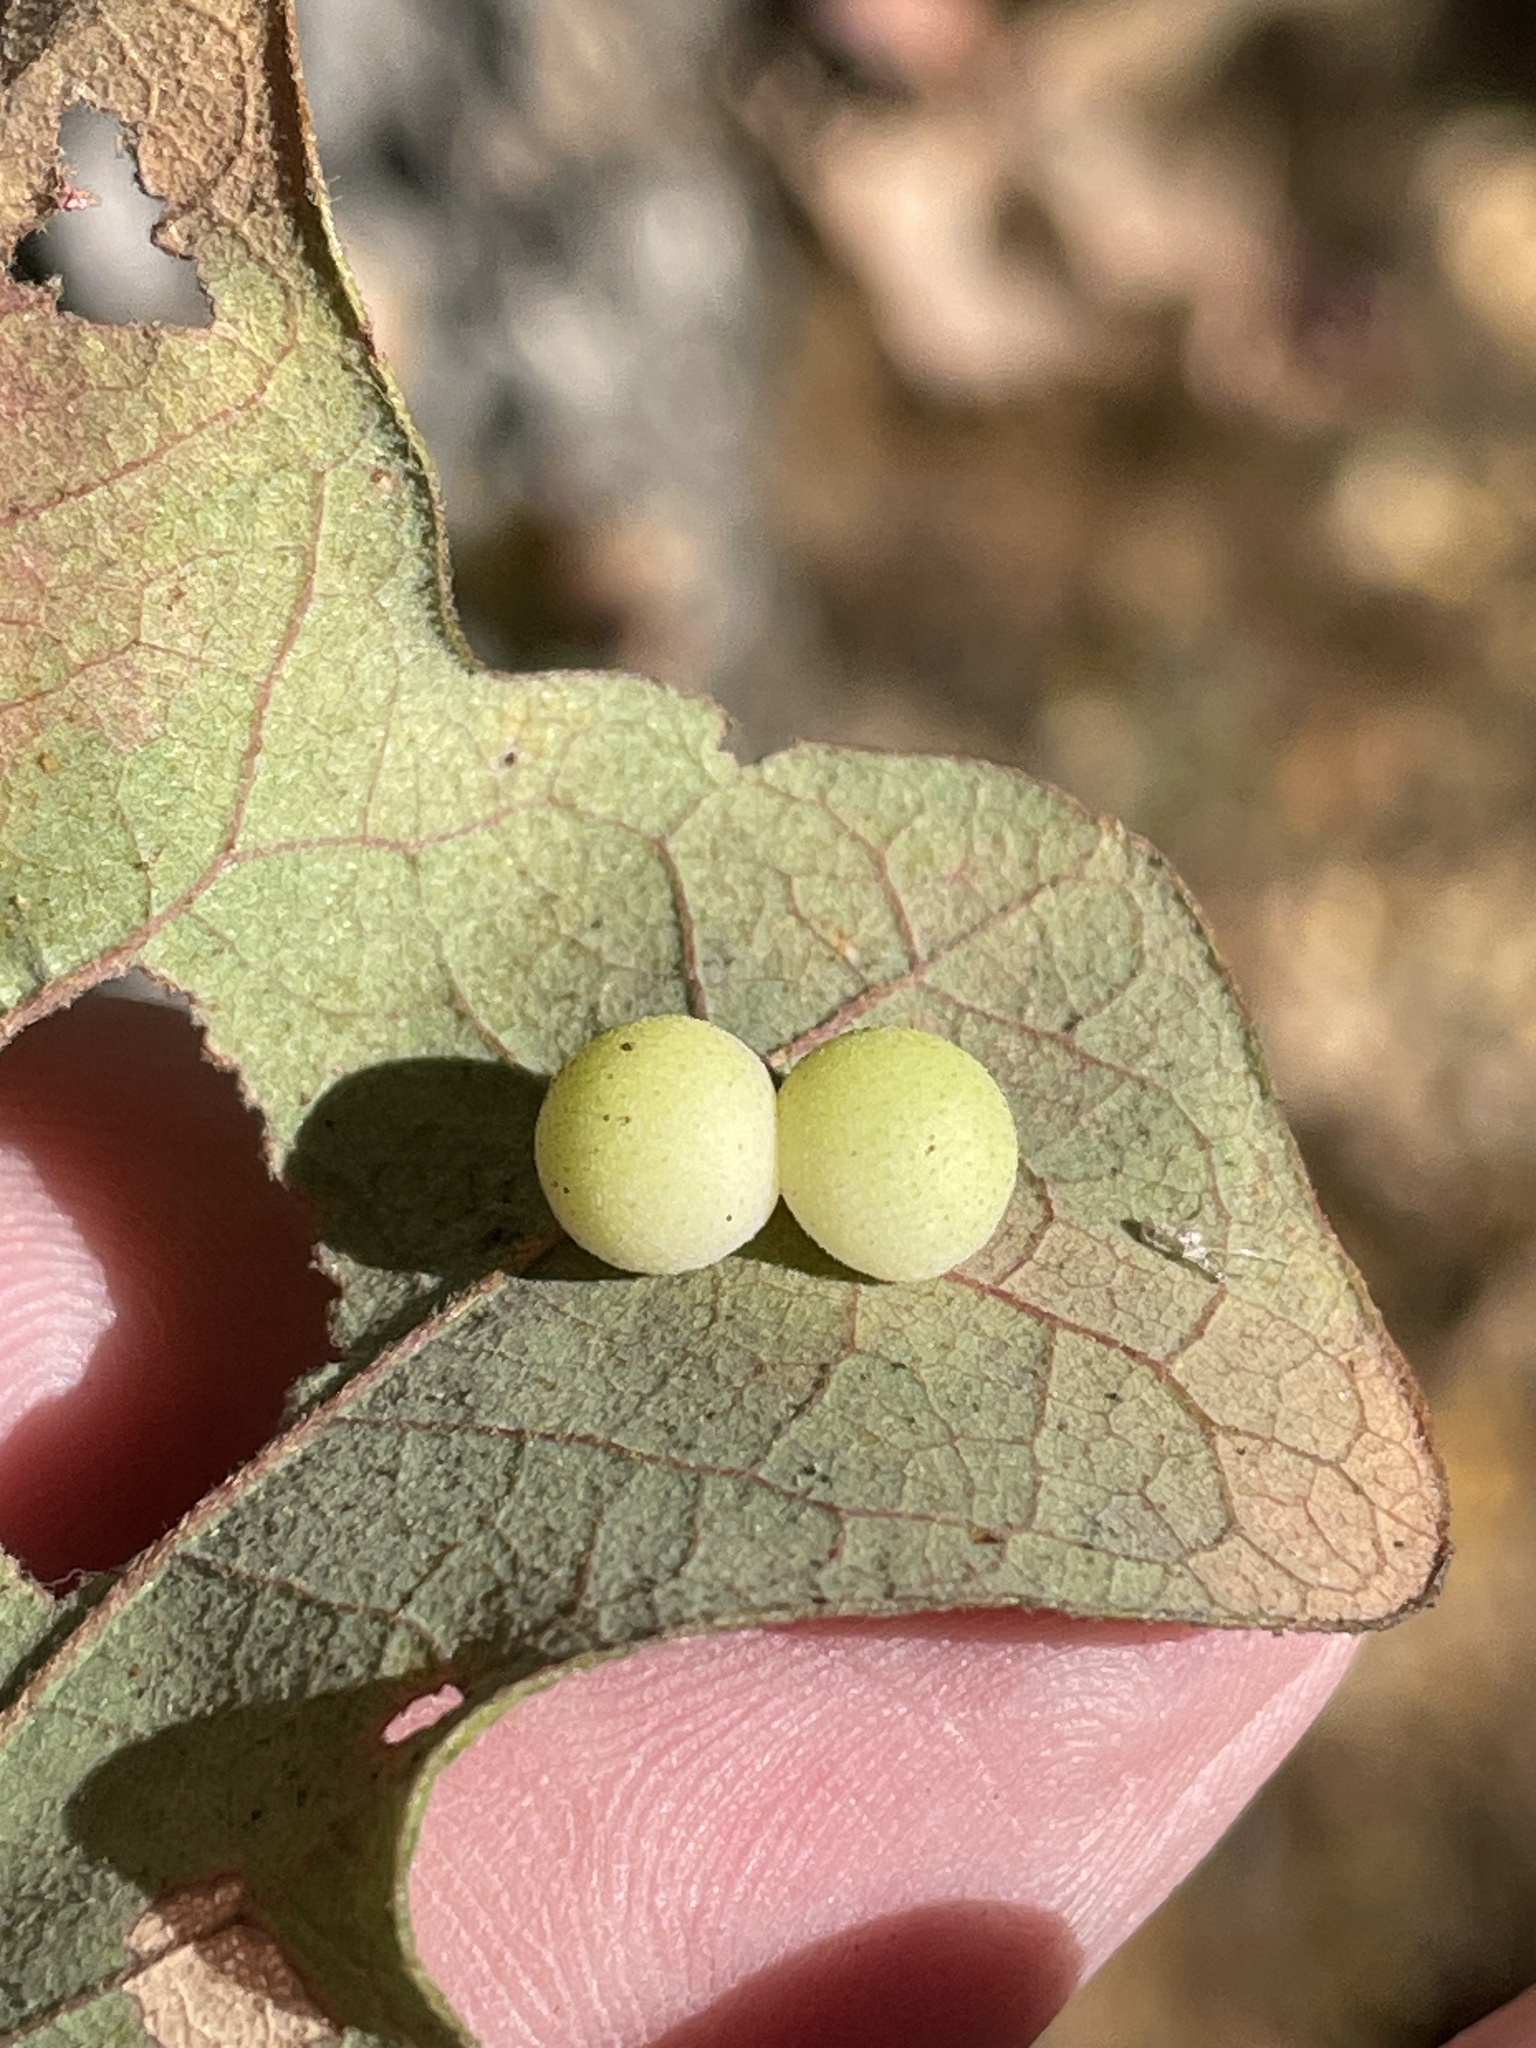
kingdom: Animalia
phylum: Arthropoda
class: Insecta
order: Hymenoptera
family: Cynipidae
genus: Atrusca
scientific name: Atrusca
